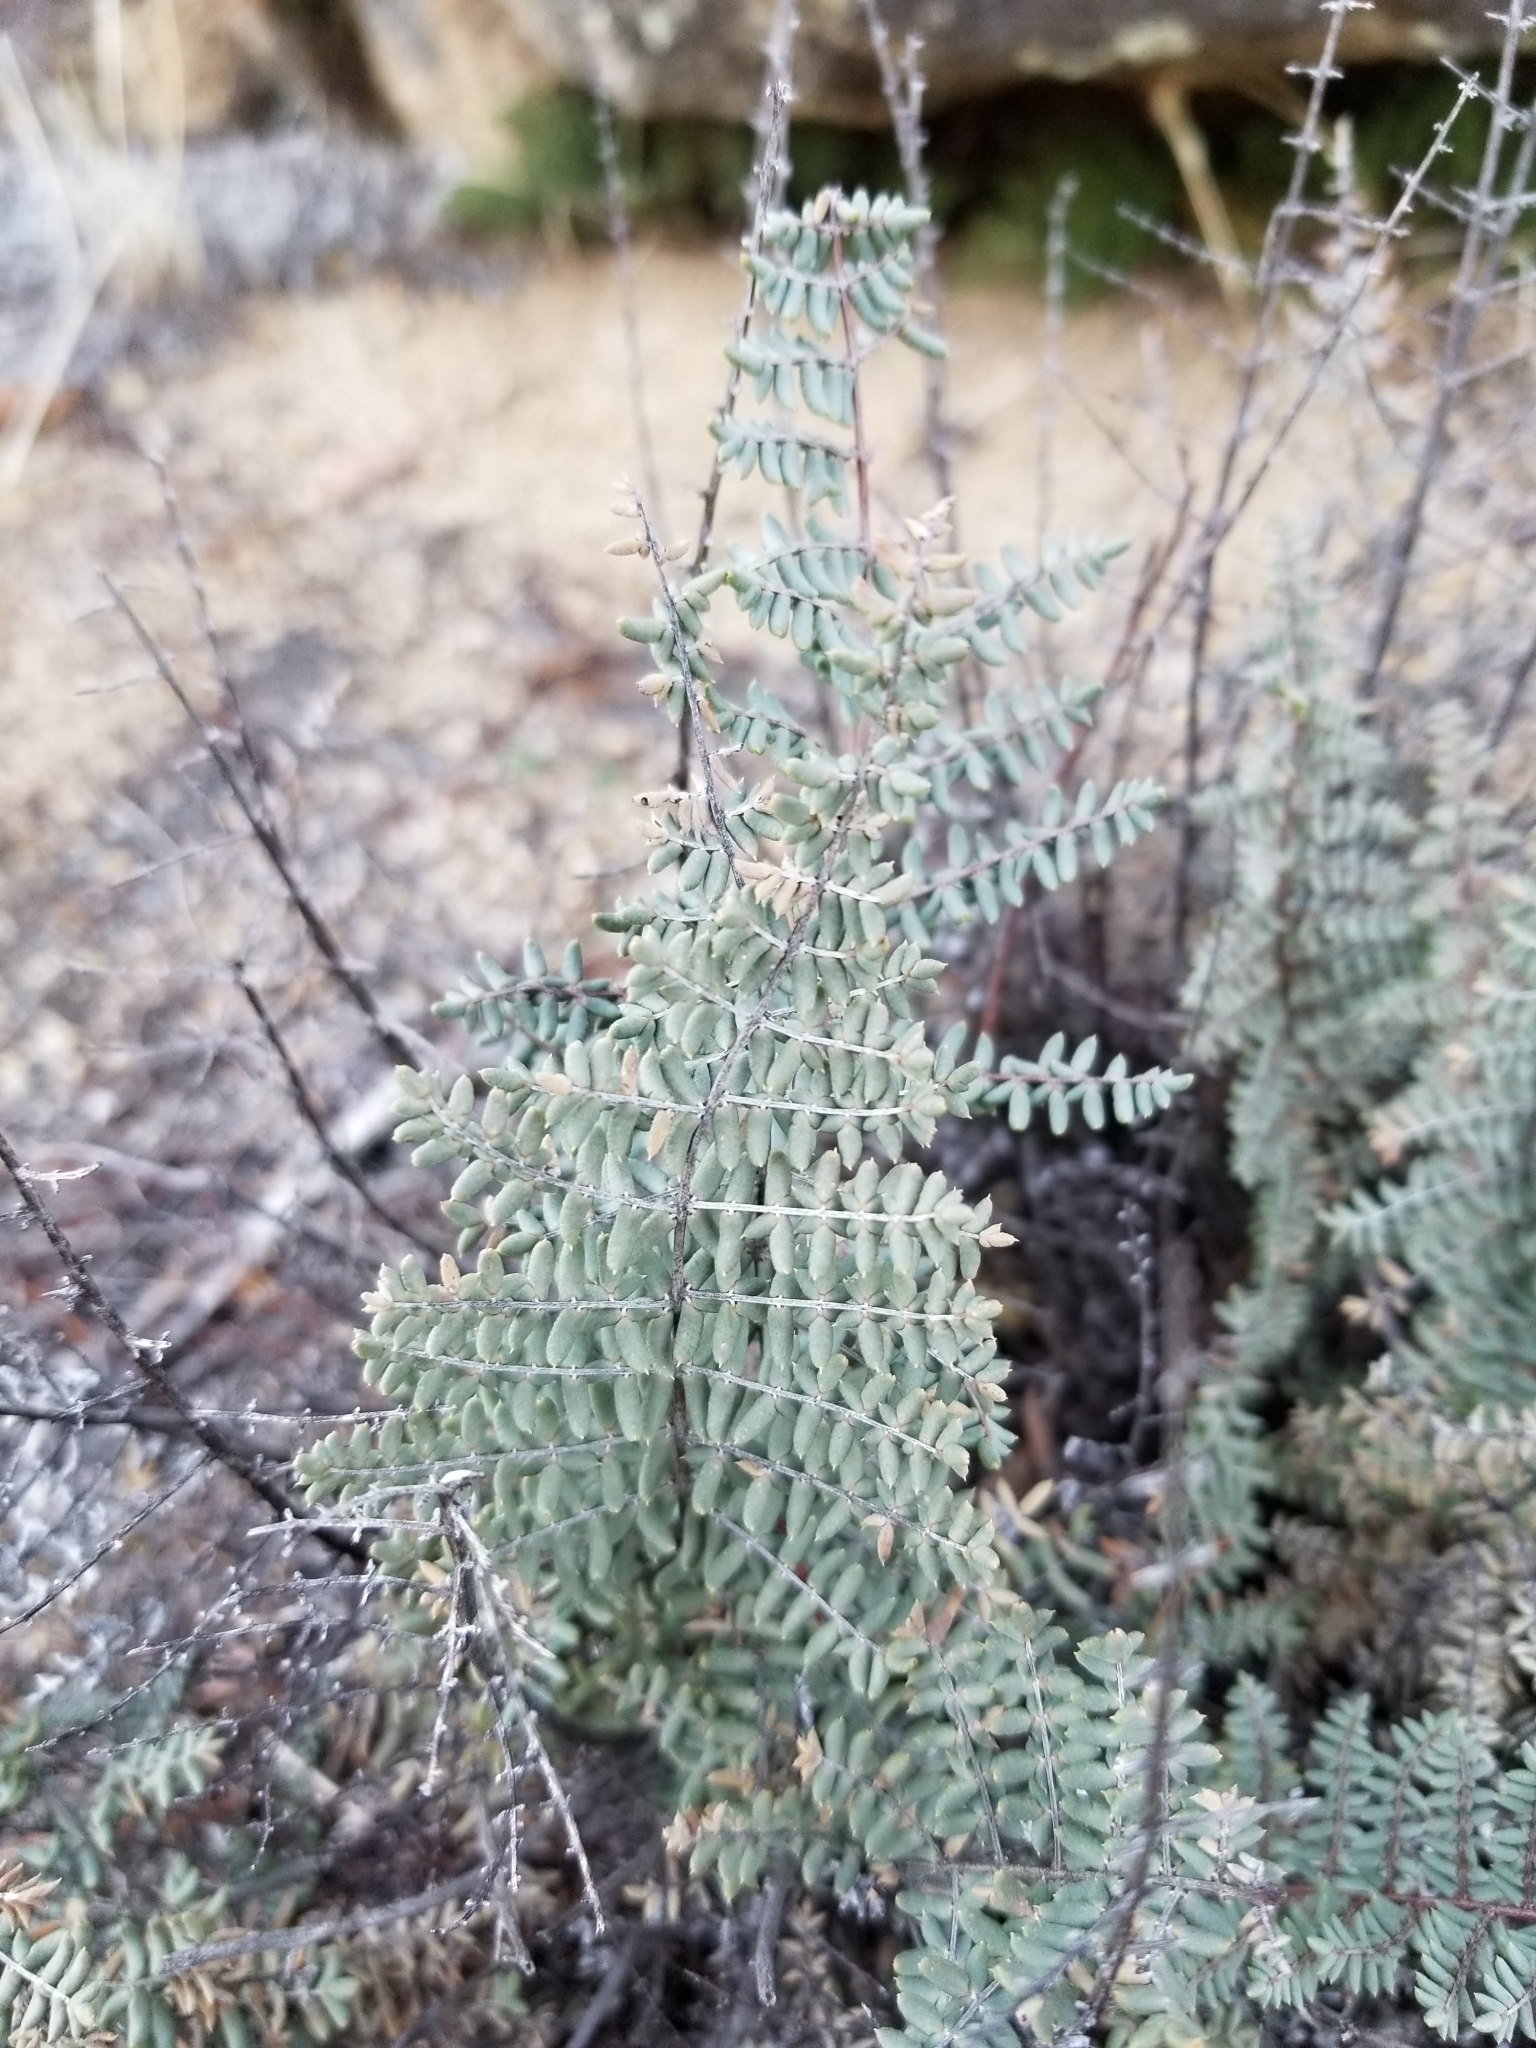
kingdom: Plantae
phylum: Tracheophyta
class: Polypodiopsida
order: Polypodiales
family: Pteridaceae
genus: Pellaea
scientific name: Pellaea mucronata
